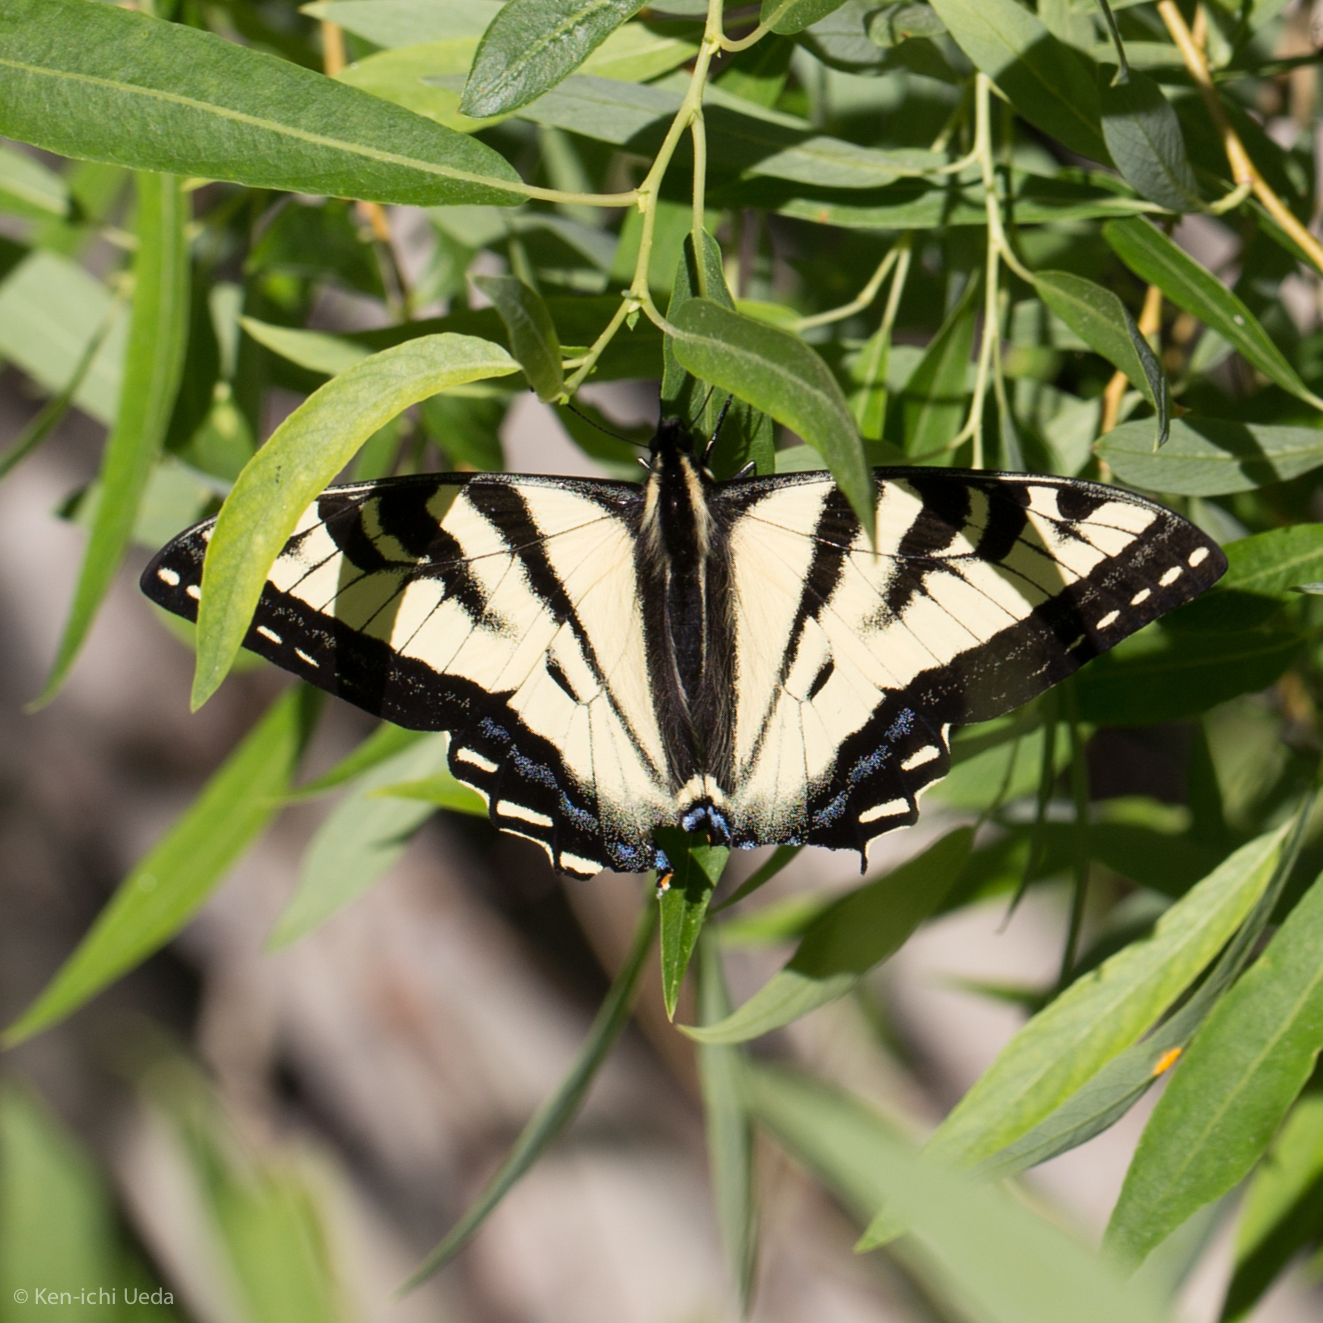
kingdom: Animalia
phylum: Arthropoda
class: Insecta
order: Lepidoptera
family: Papilionidae
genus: Papilio
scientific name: Papilio rutulus
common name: Western tiger swallowtail
